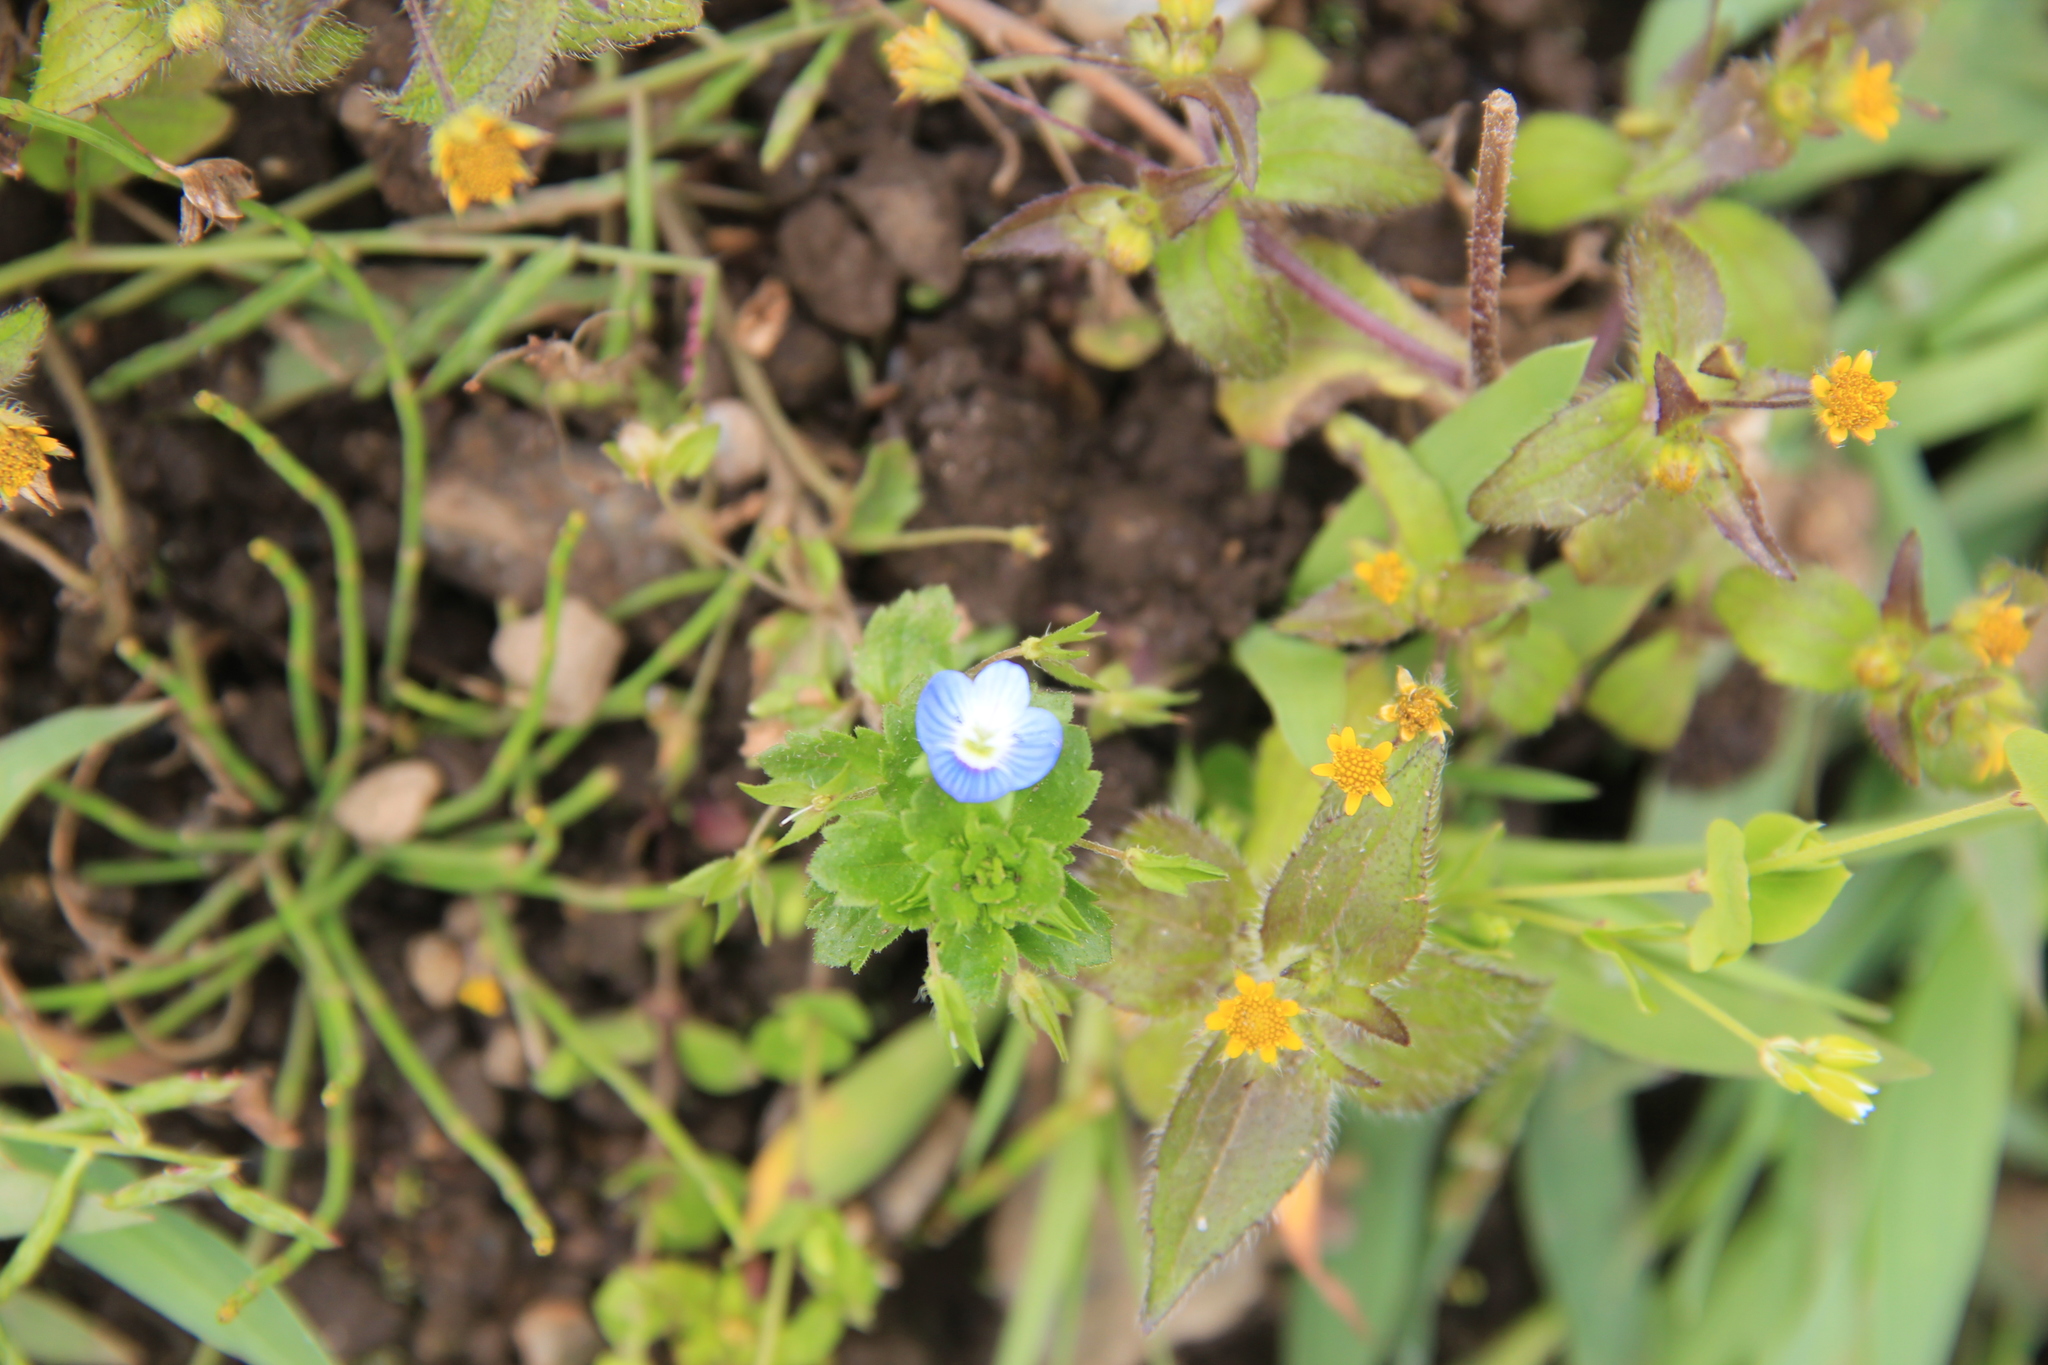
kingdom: Plantae
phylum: Tracheophyta
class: Magnoliopsida
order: Lamiales
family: Plantaginaceae
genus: Veronica
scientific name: Veronica persica
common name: Common field-speedwell
